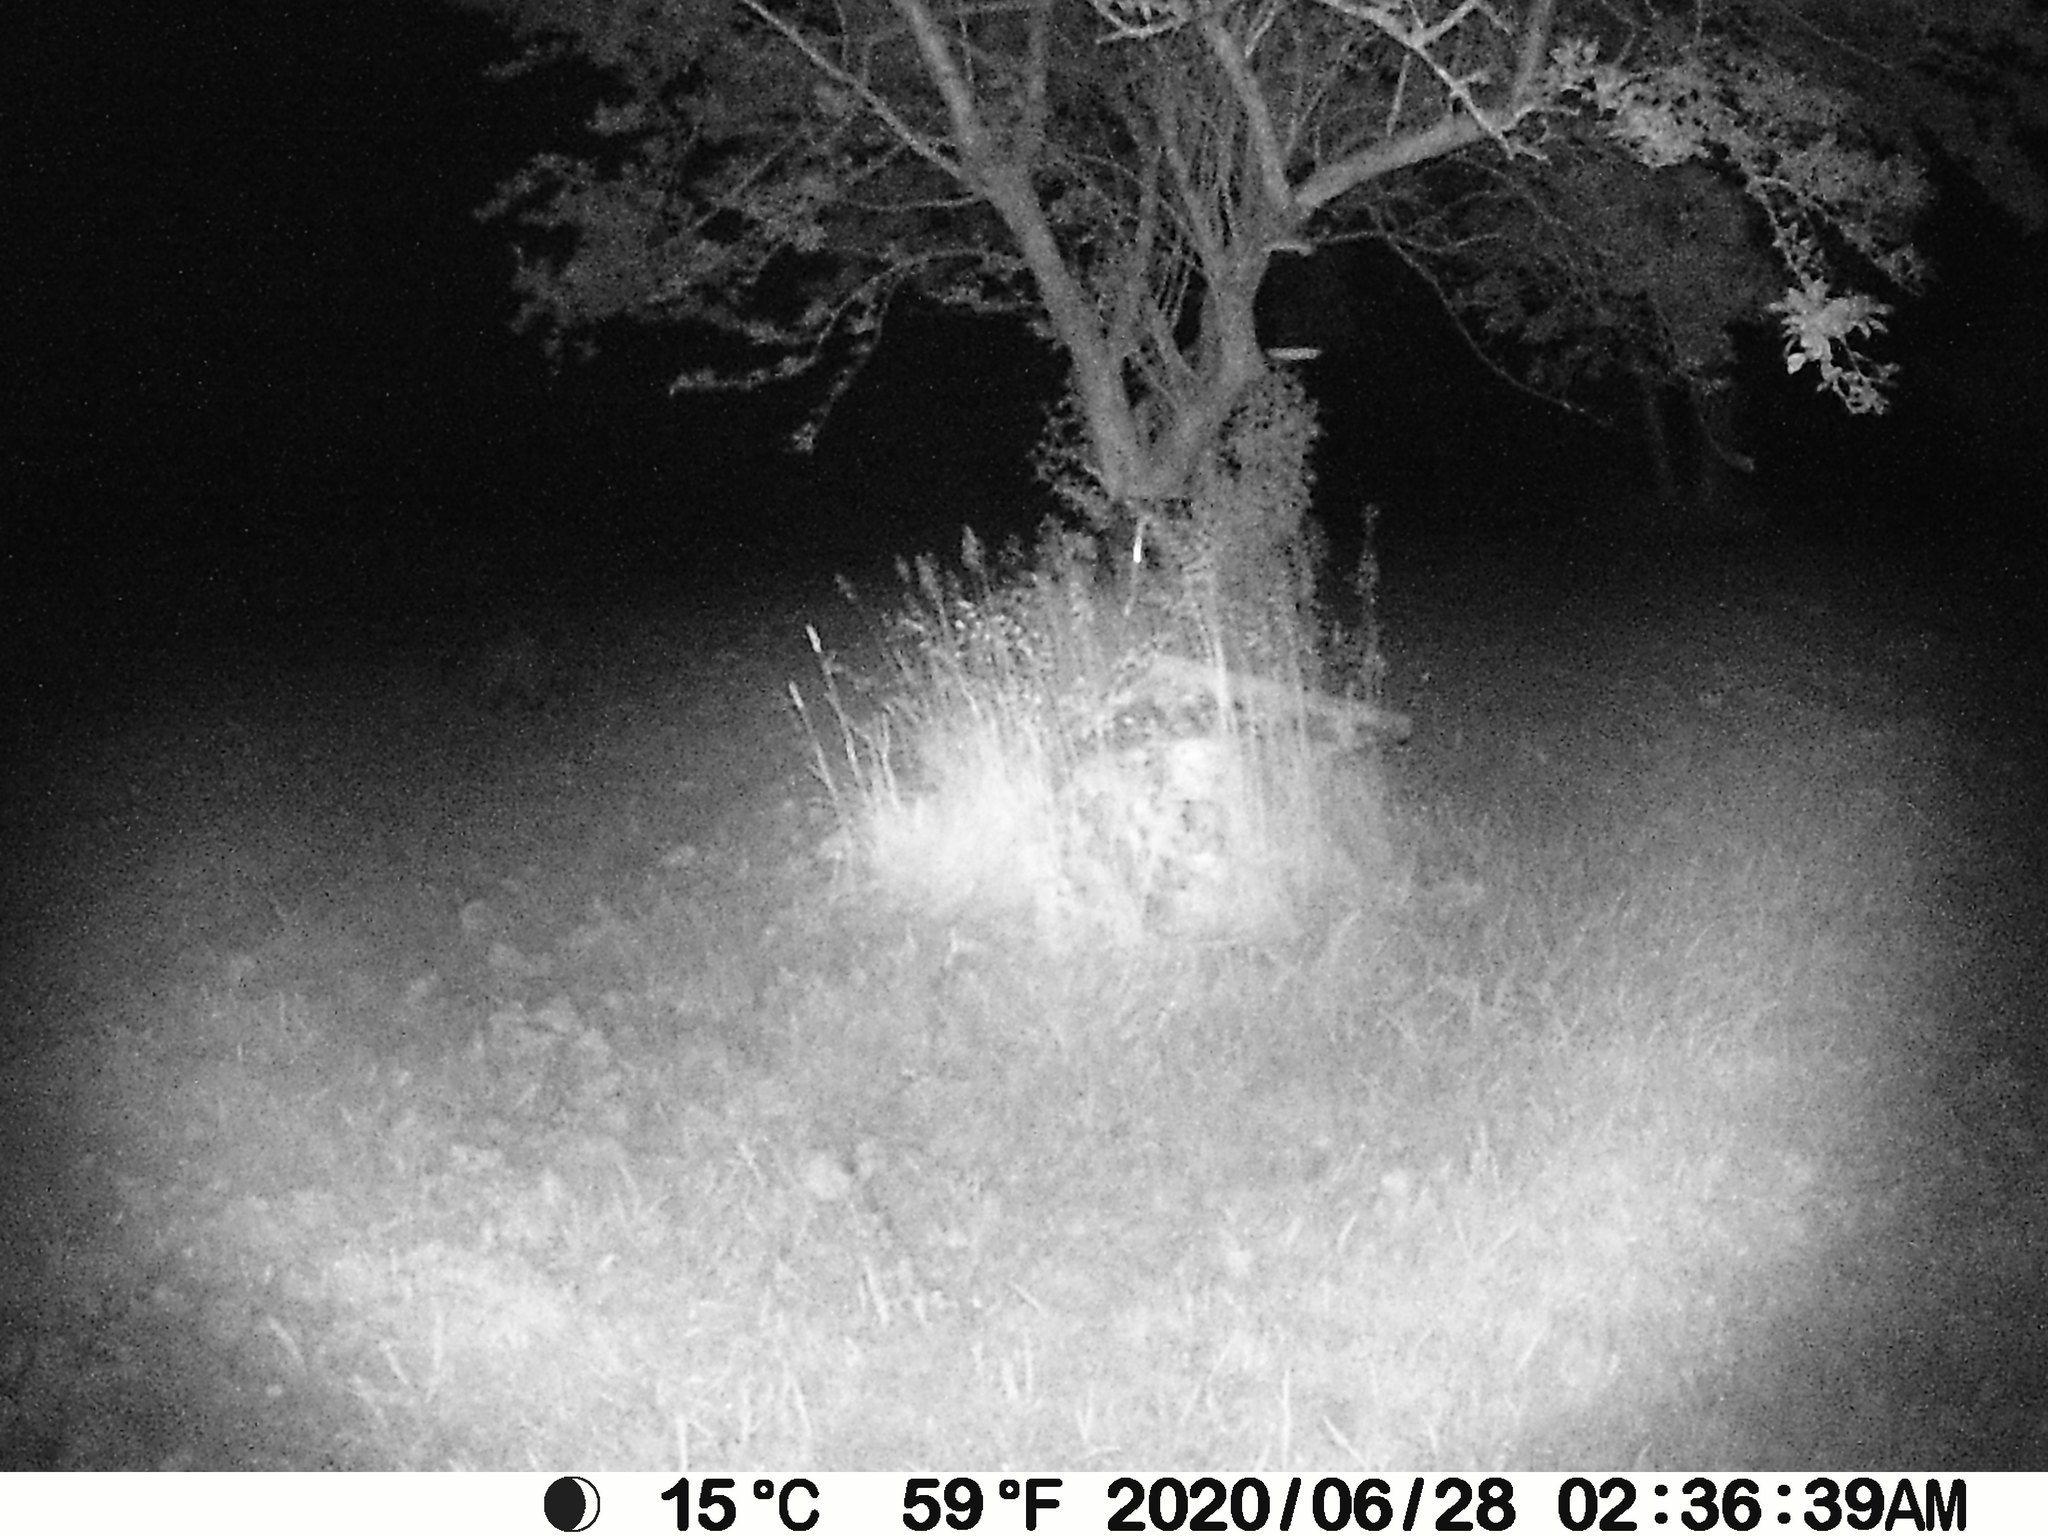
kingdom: Animalia
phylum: Chordata
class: Mammalia
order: Carnivora
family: Procyonidae
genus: Procyon
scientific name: Procyon lotor
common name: Raccoon
